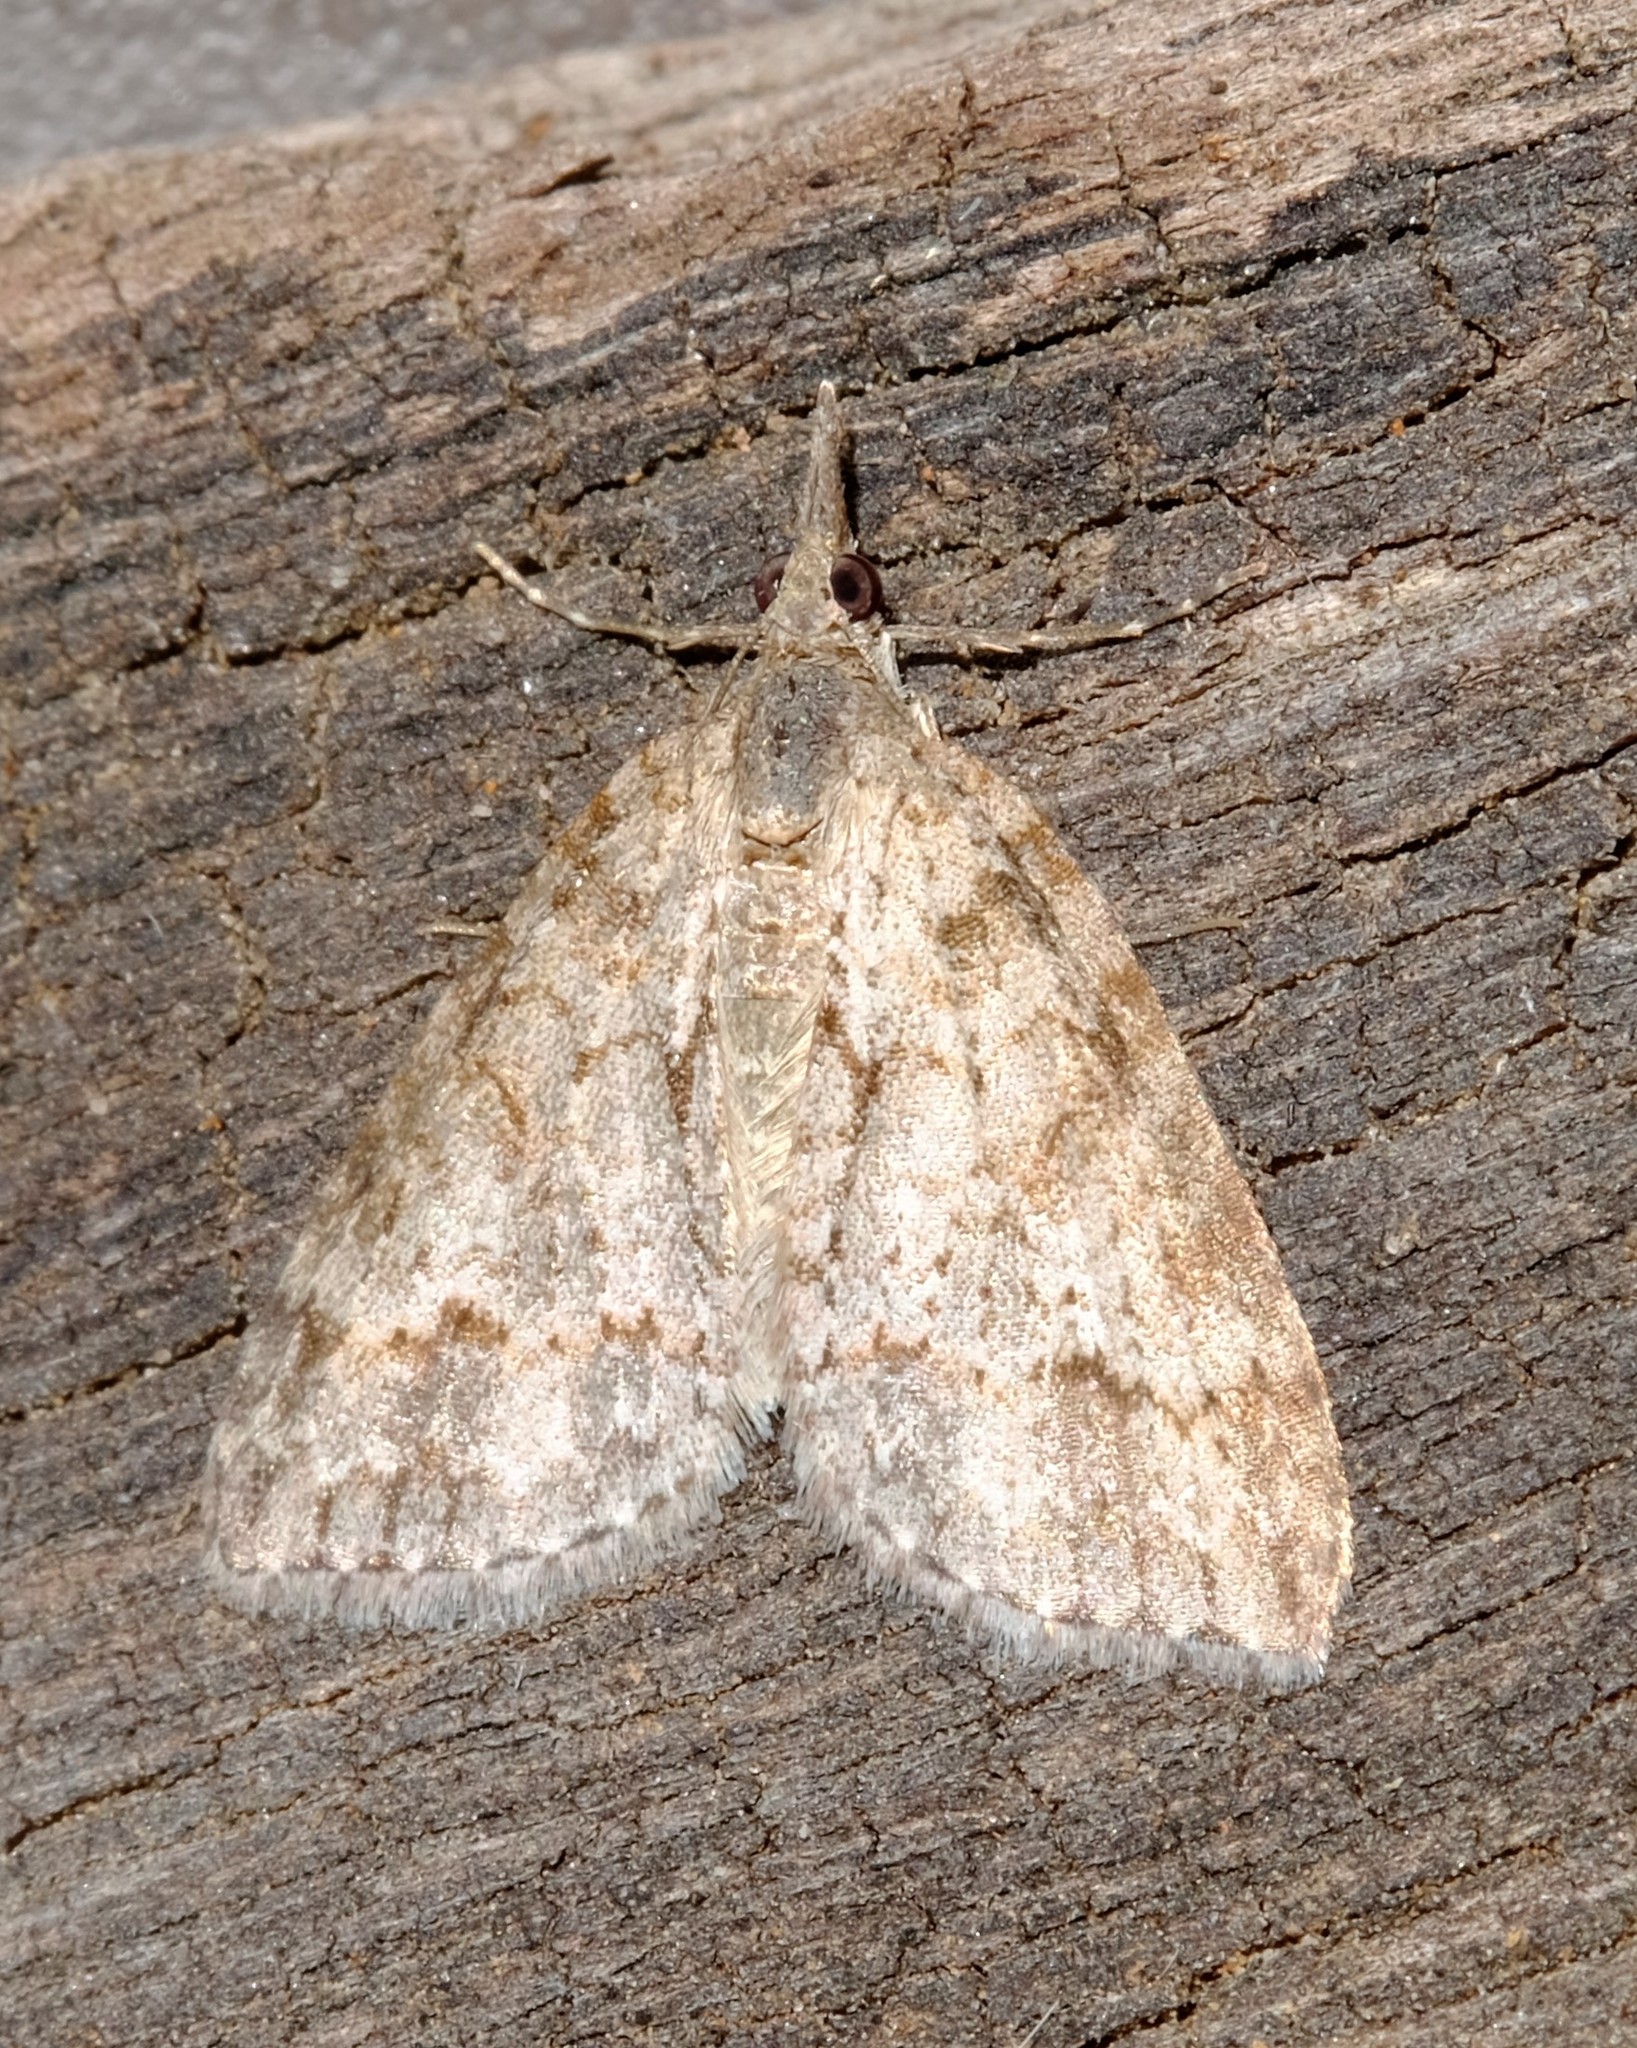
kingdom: Animalia
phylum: Arthropoda
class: Insecta
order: Lepidoptera
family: Geometridae
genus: Microdes
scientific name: Microdes villosata
